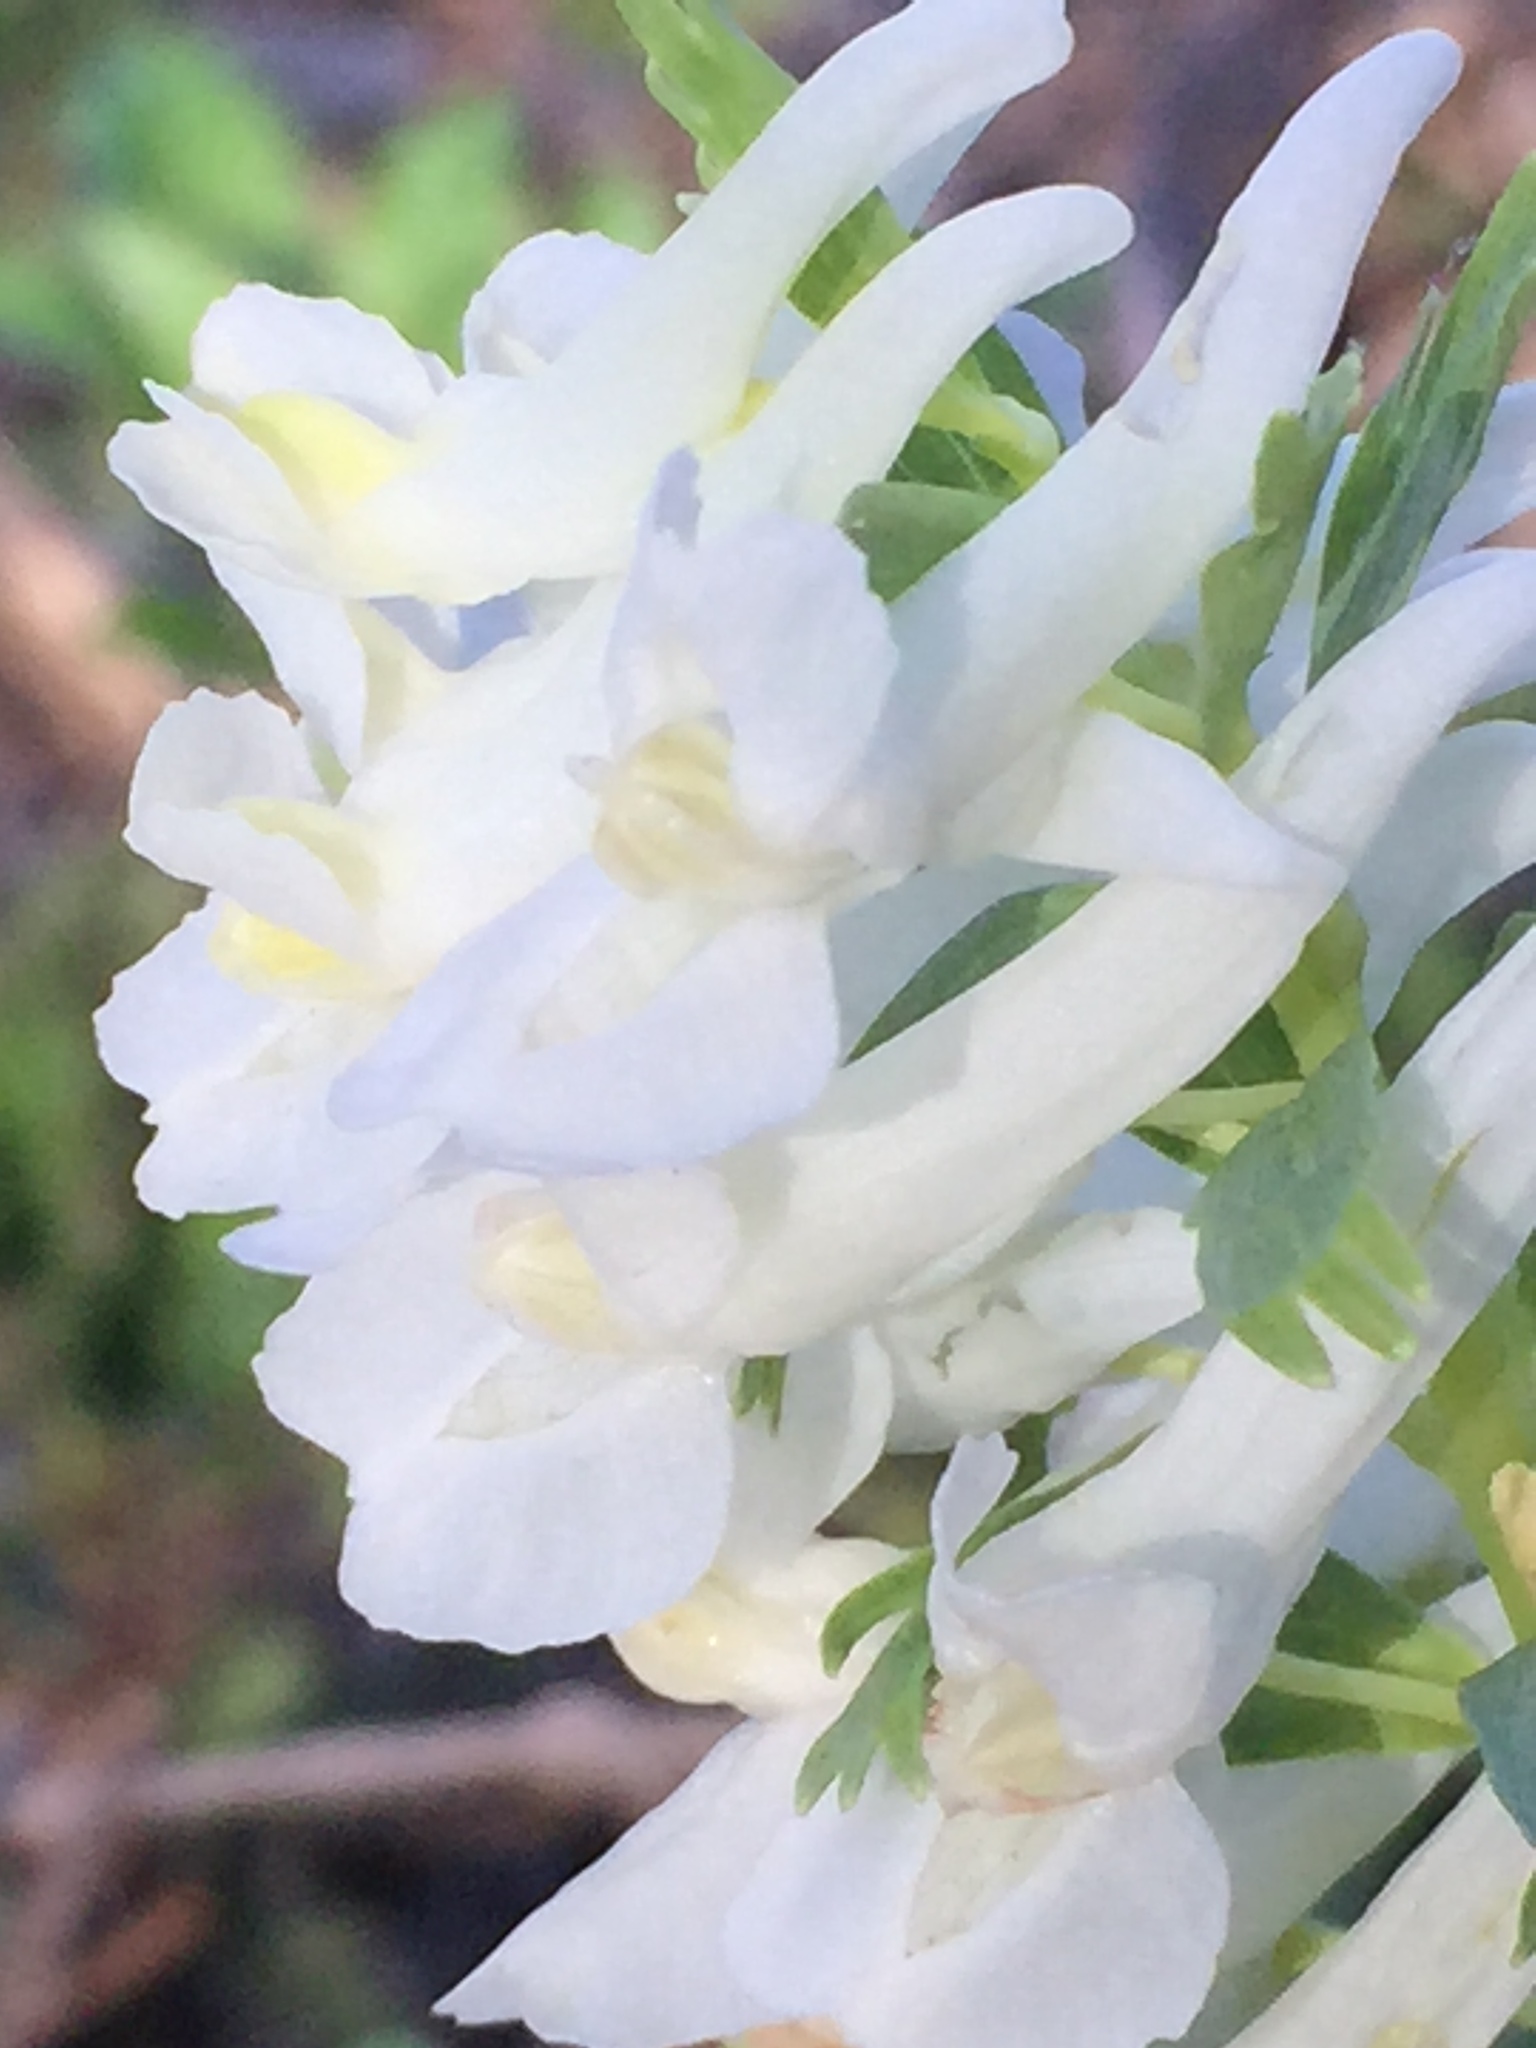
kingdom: Plantae
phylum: Tracheophyta
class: Magnoliopsida
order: Ranunculales
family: Papaveraceae
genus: Corydalis
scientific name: Corydalis solida
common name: Bird-in-a-bush
